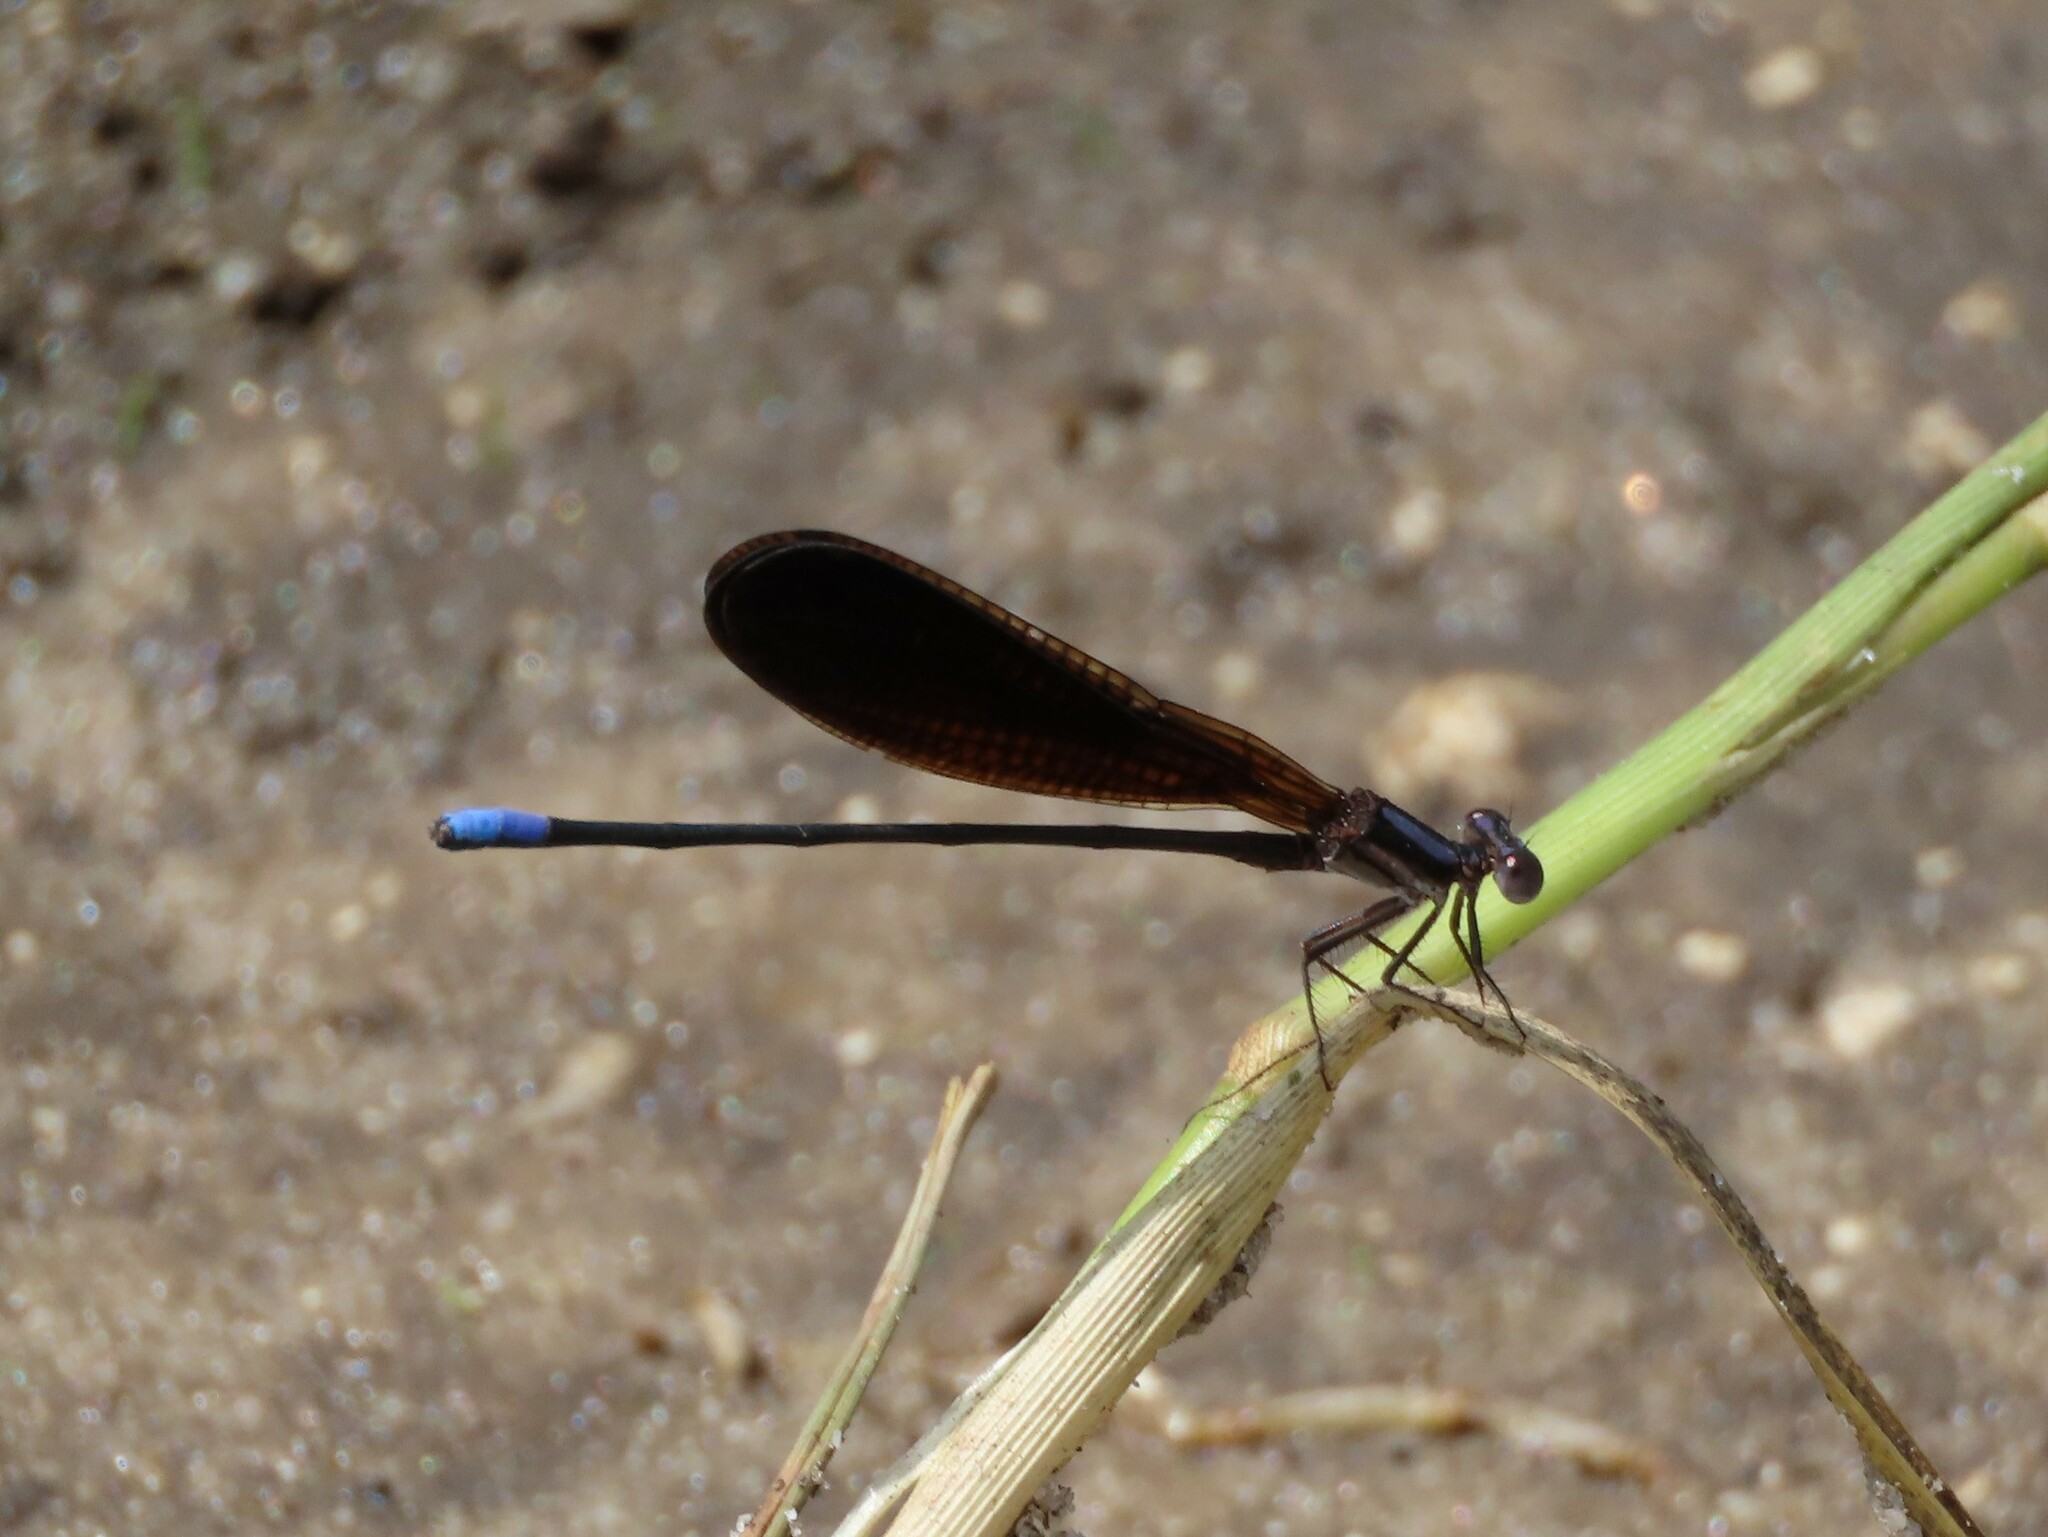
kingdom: Animalia
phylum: Arthropoda
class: Insecta
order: Odonata
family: Coenagrionidae
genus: Argia
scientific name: Argia fumipennis
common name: Variable dancer
